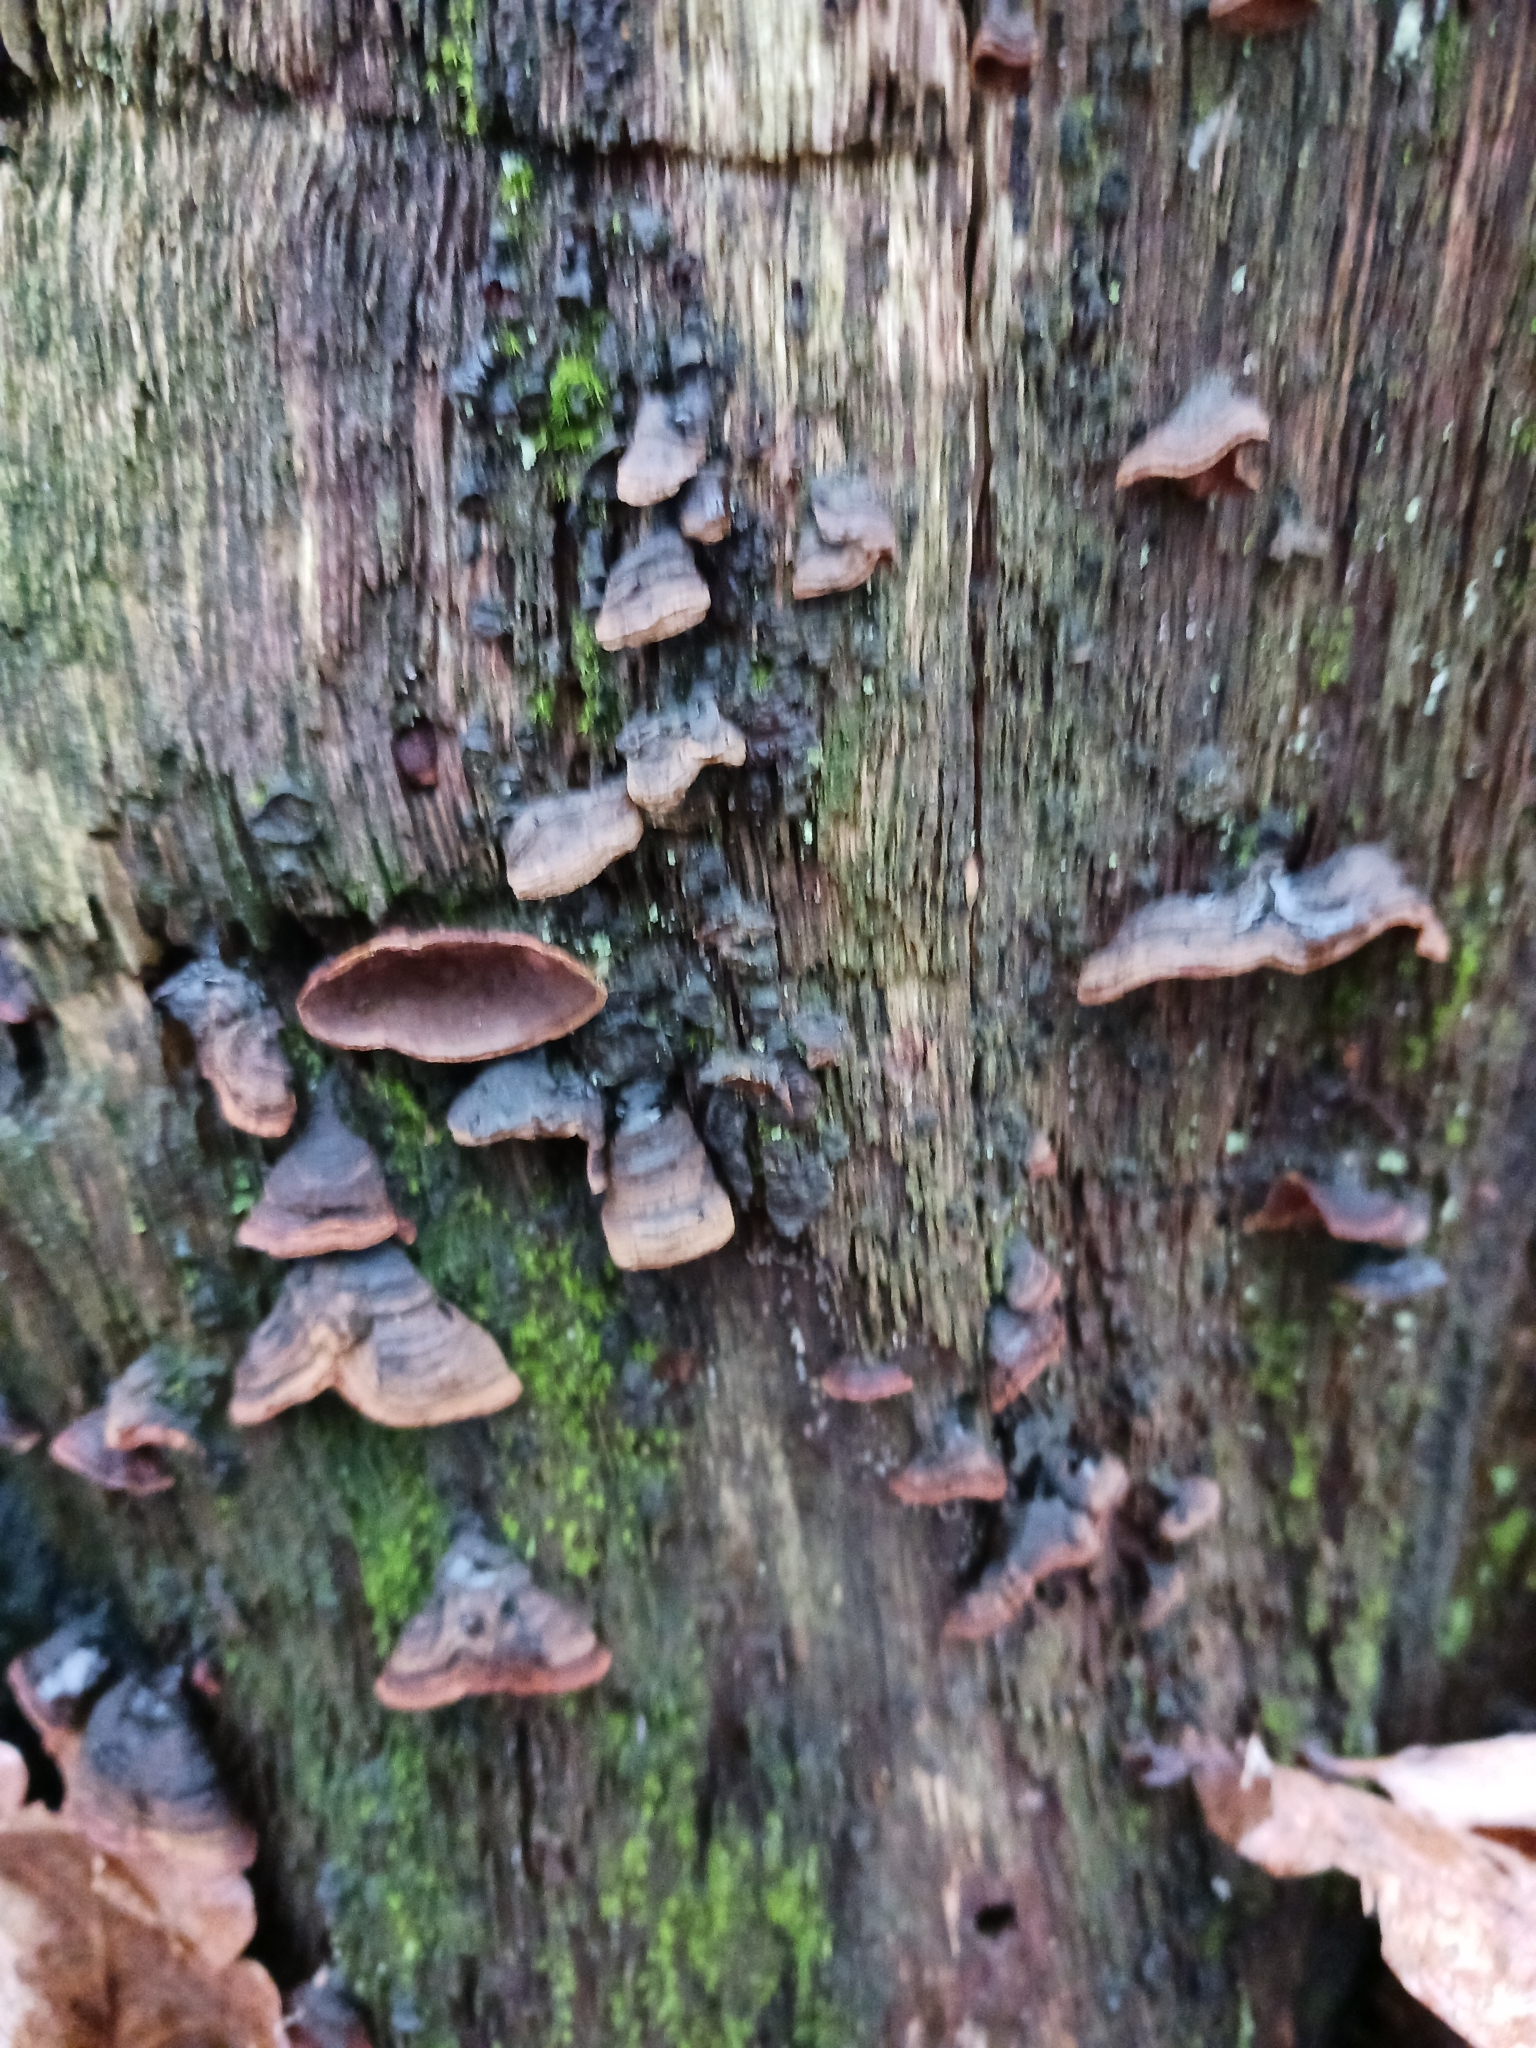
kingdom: Fungi
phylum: Basidiomycota
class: Agaricomycetes
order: Hymenochaetales
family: Hymenochaetaceae
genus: Hymenochaete
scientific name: Hymenochaete rubiginosa
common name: Oak curtain crust
